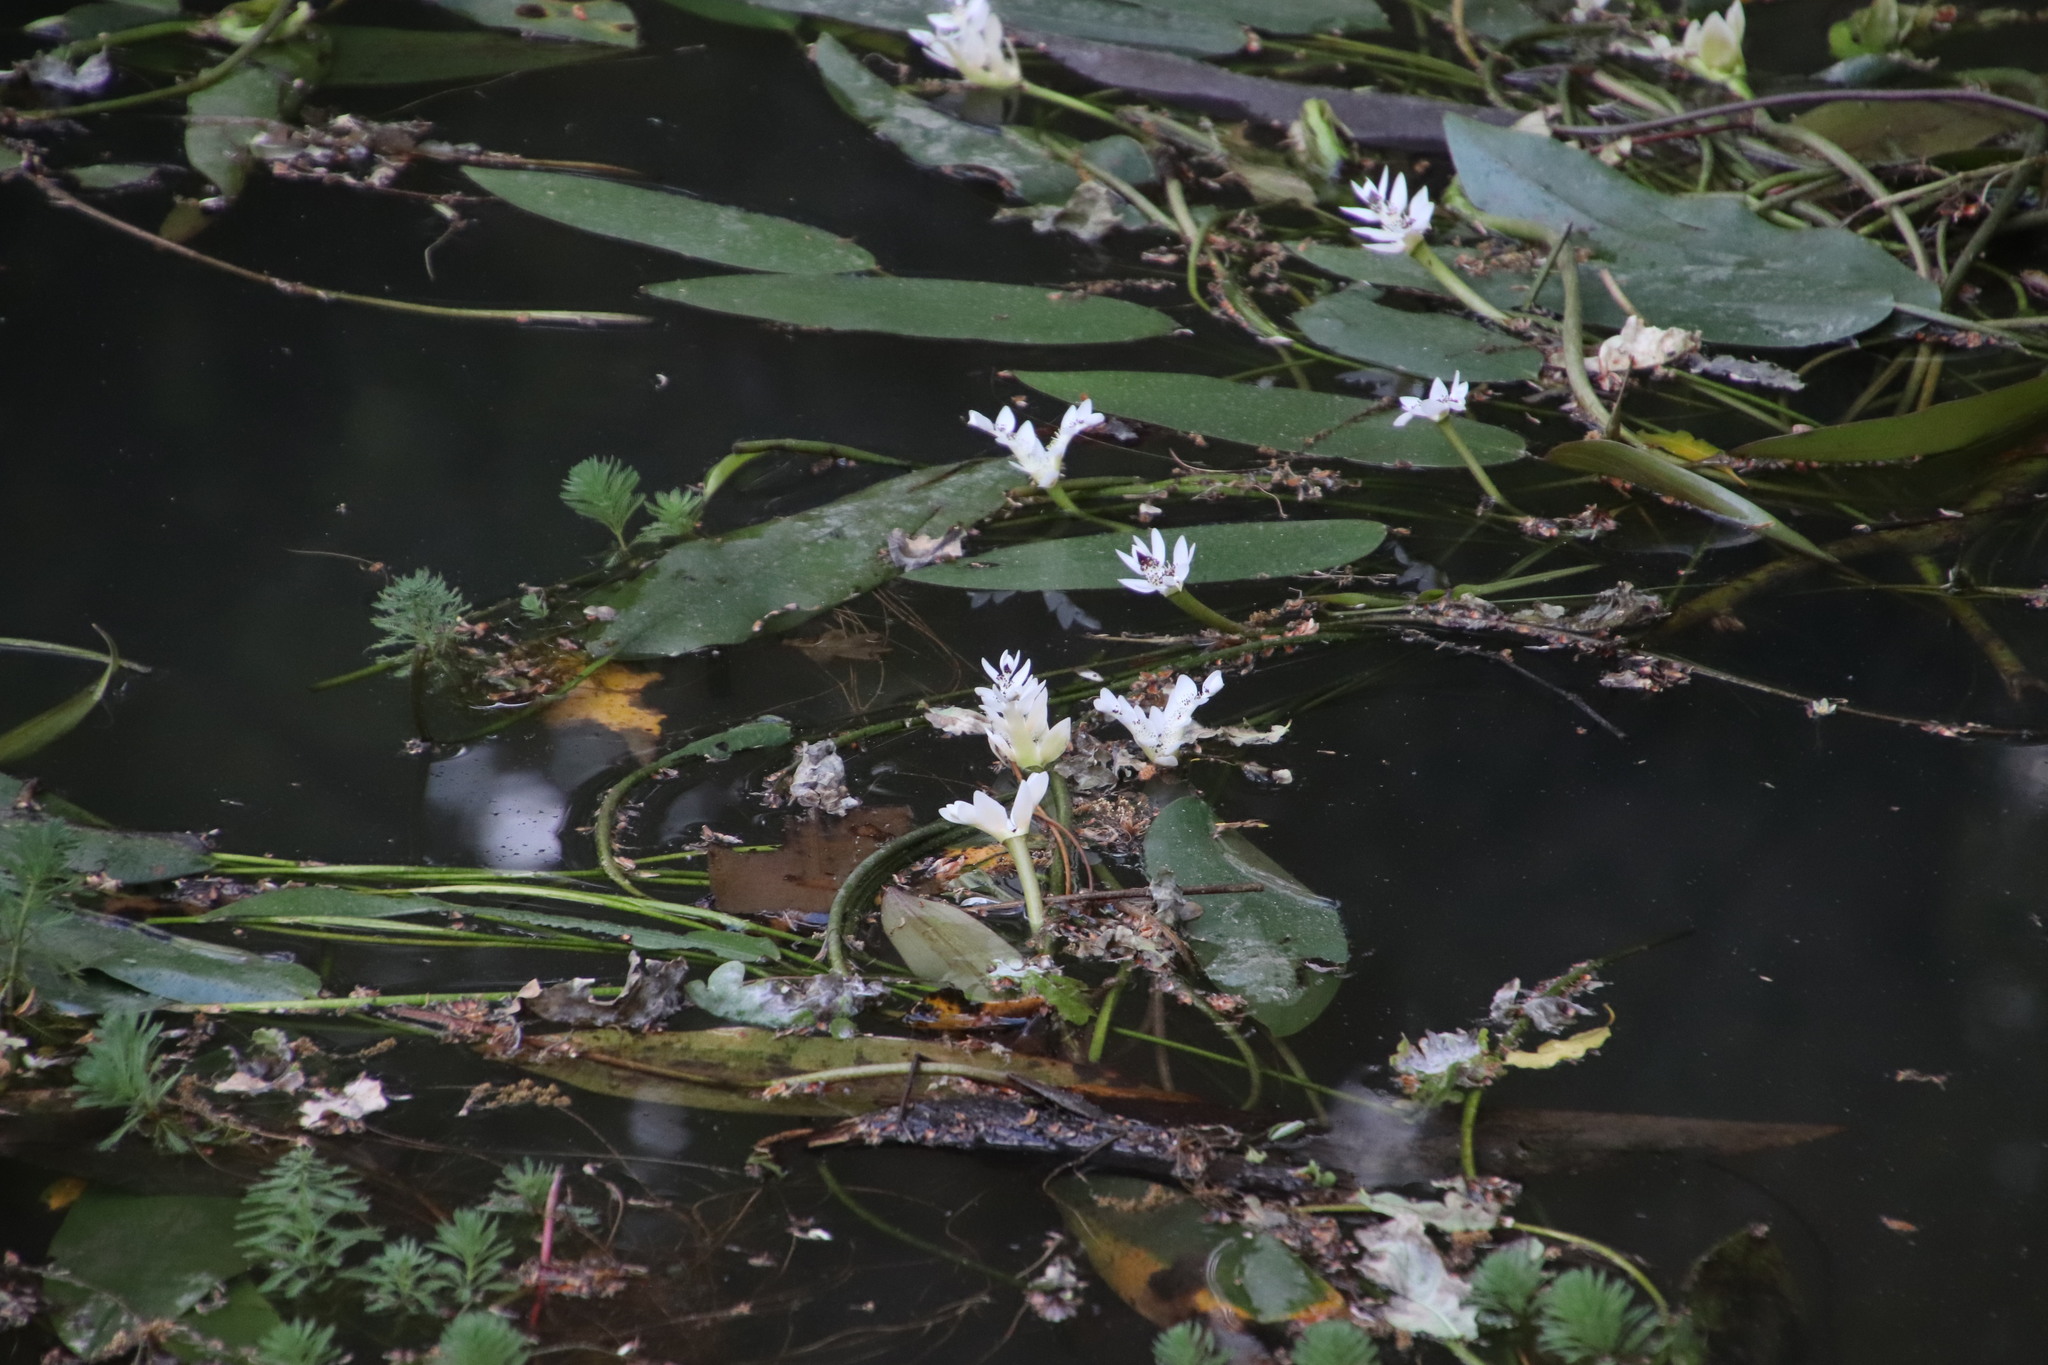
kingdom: Plantae
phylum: Tracheophyta
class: Liliopsida
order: Alismatales
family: Aponogetonaceae
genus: Aponogeton
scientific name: Aponogeton distachyos
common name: Cape-pondweed
